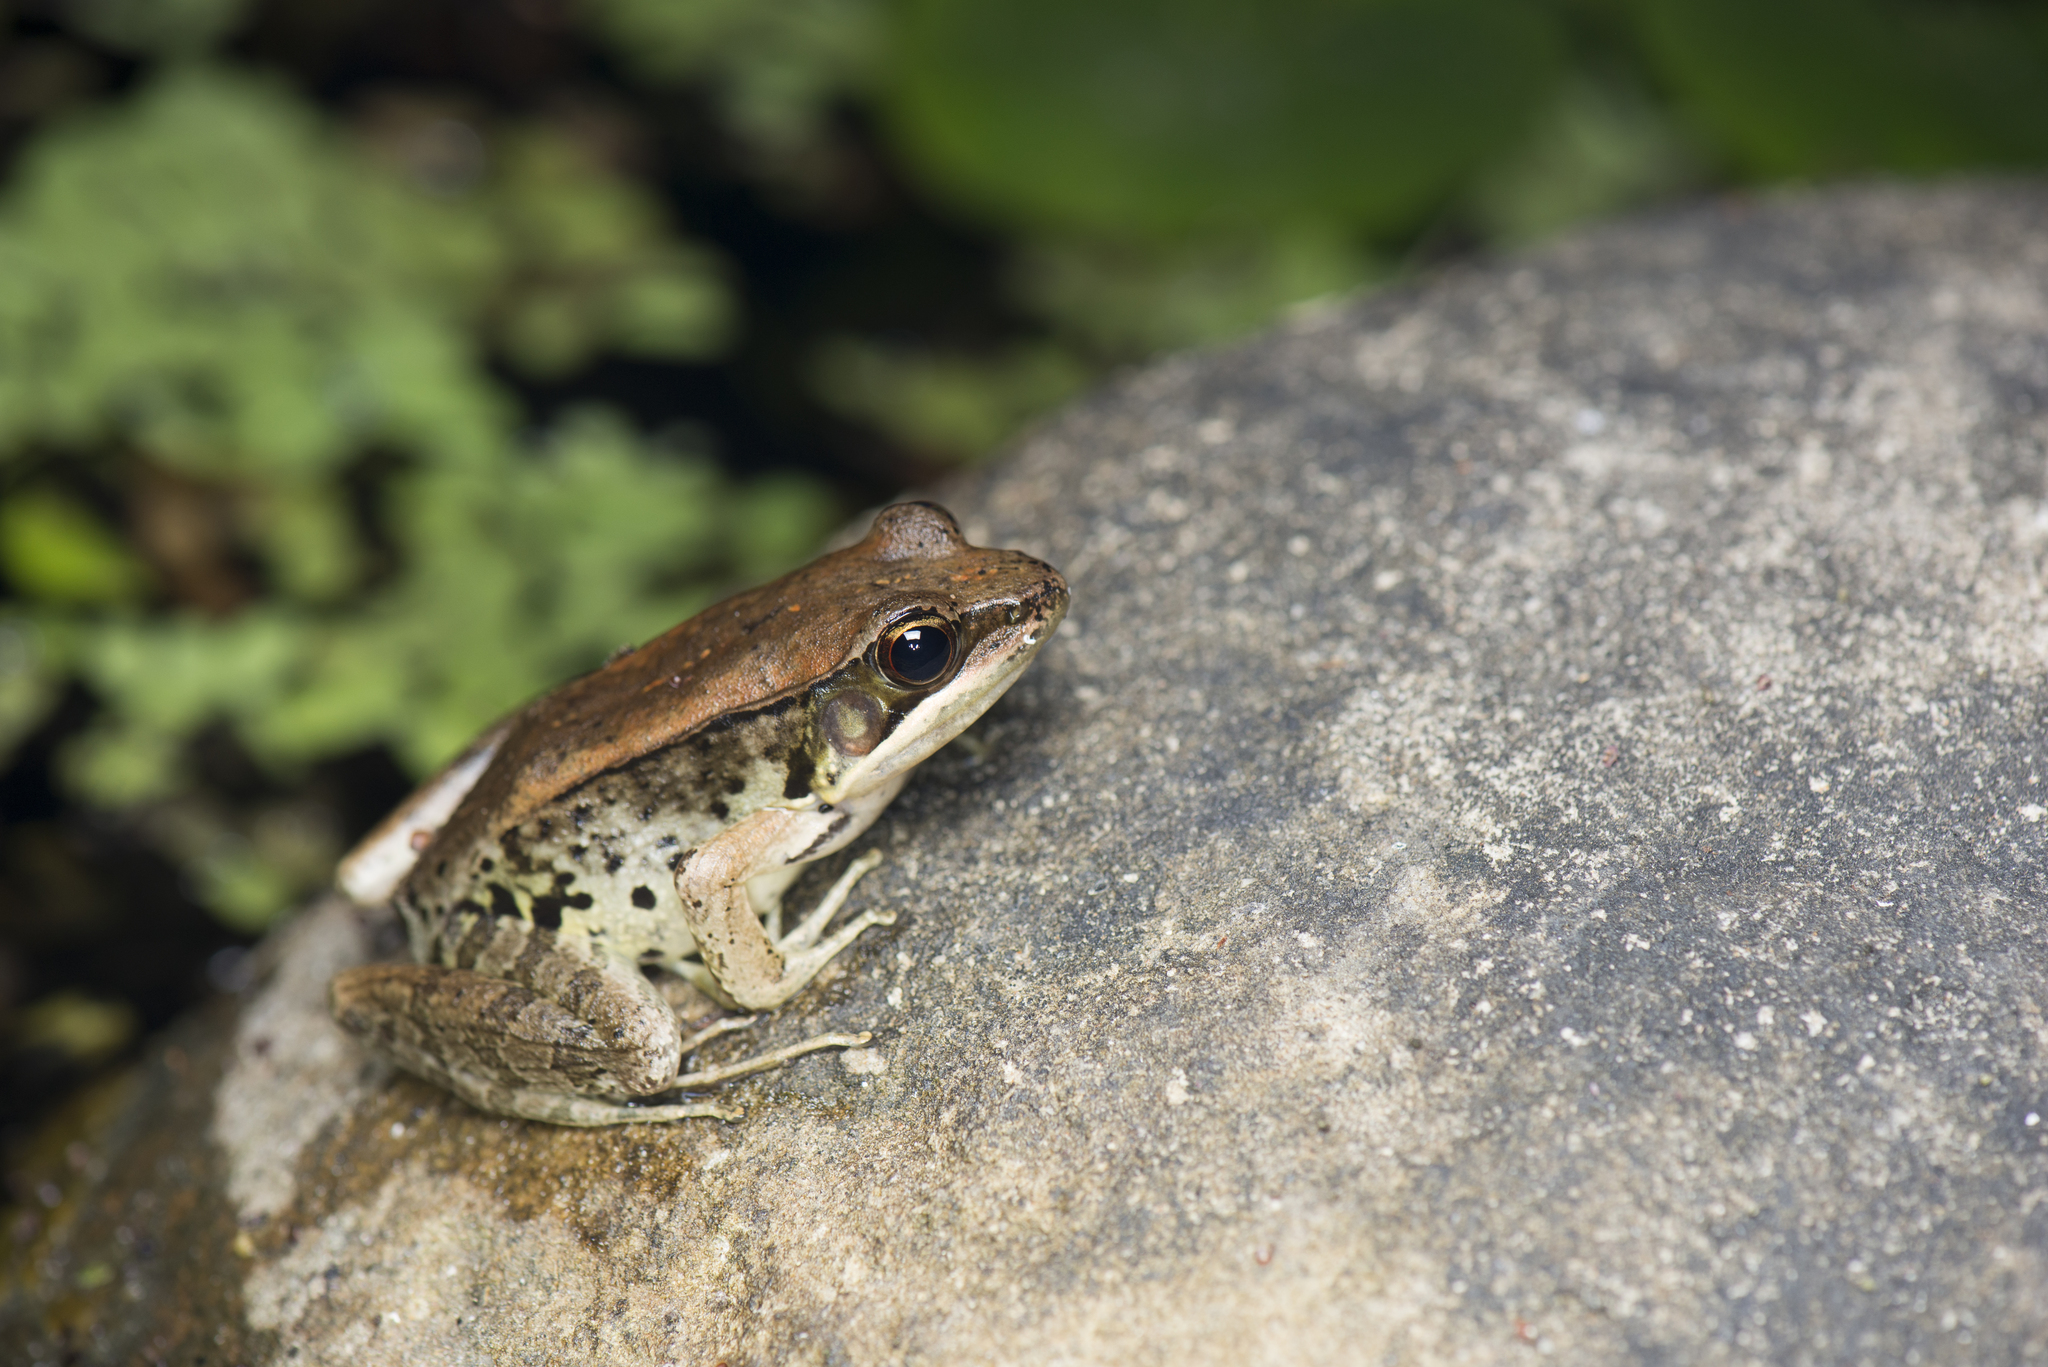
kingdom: Animalia
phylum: Chordata
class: Amphibia
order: Anura
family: Ranidae
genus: Nidirana
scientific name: Nidirana adenopleura
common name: Olive frog
